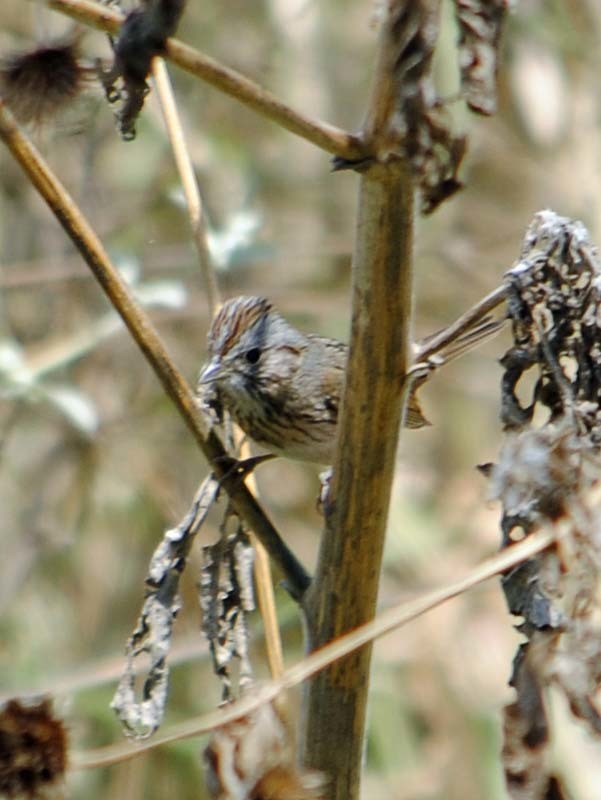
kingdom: Animalia
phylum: Chordata
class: Aves
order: Passeriformes
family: Passerellidae
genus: Melospiza
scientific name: Melospiza lincolnii
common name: Lincoln's sparrow
